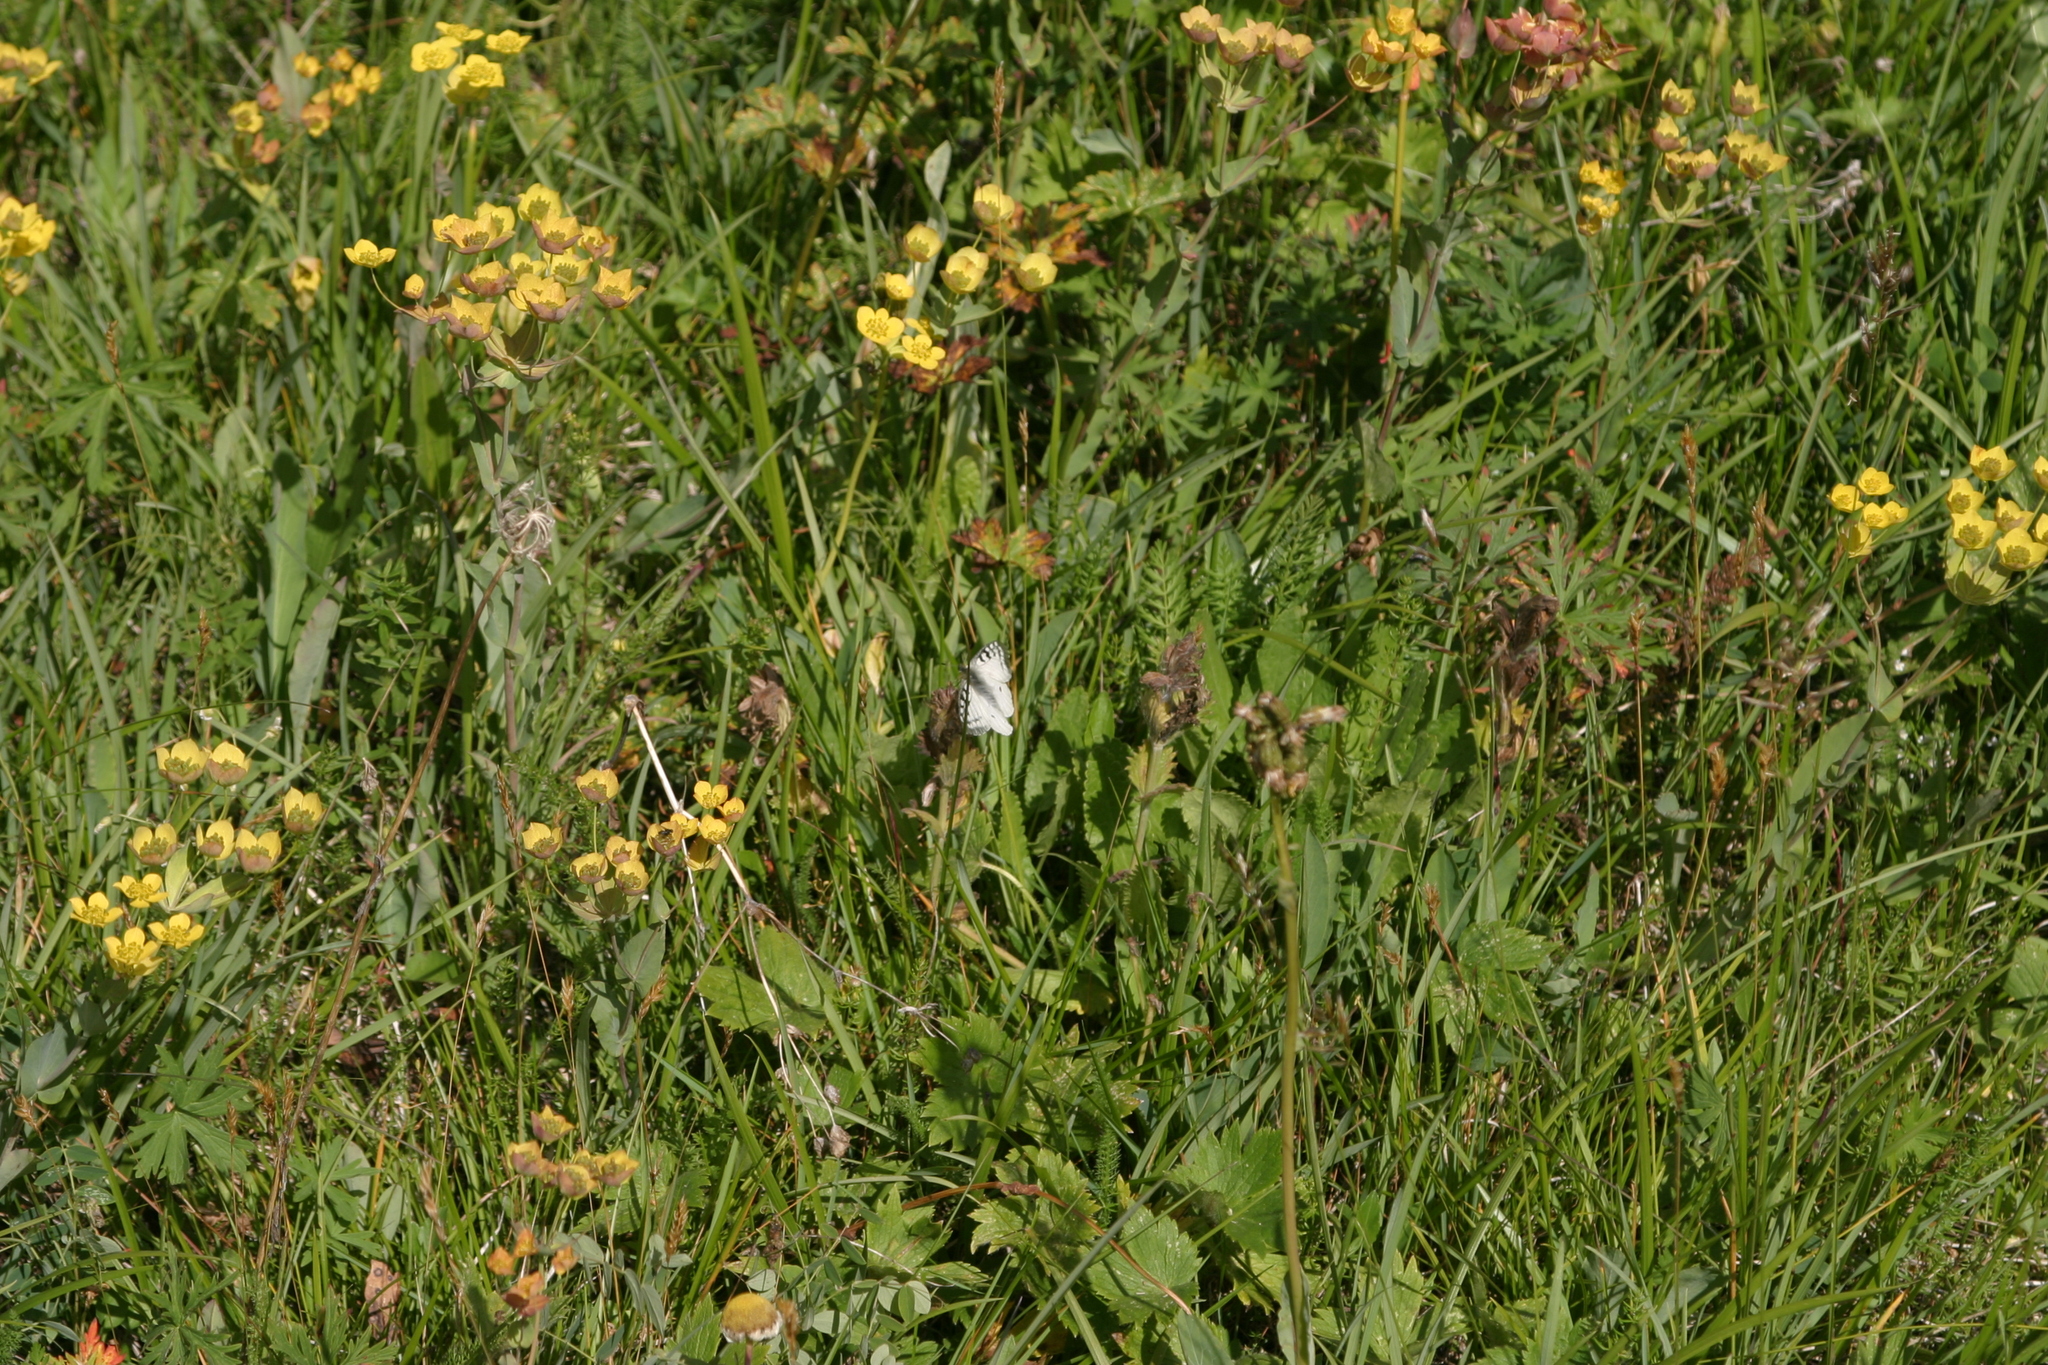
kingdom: Plantae
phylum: Tracheophyta
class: Magnoliopsida
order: Apiales
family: Apiaceae
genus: Bupleurum
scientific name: Bupleurum aureum
